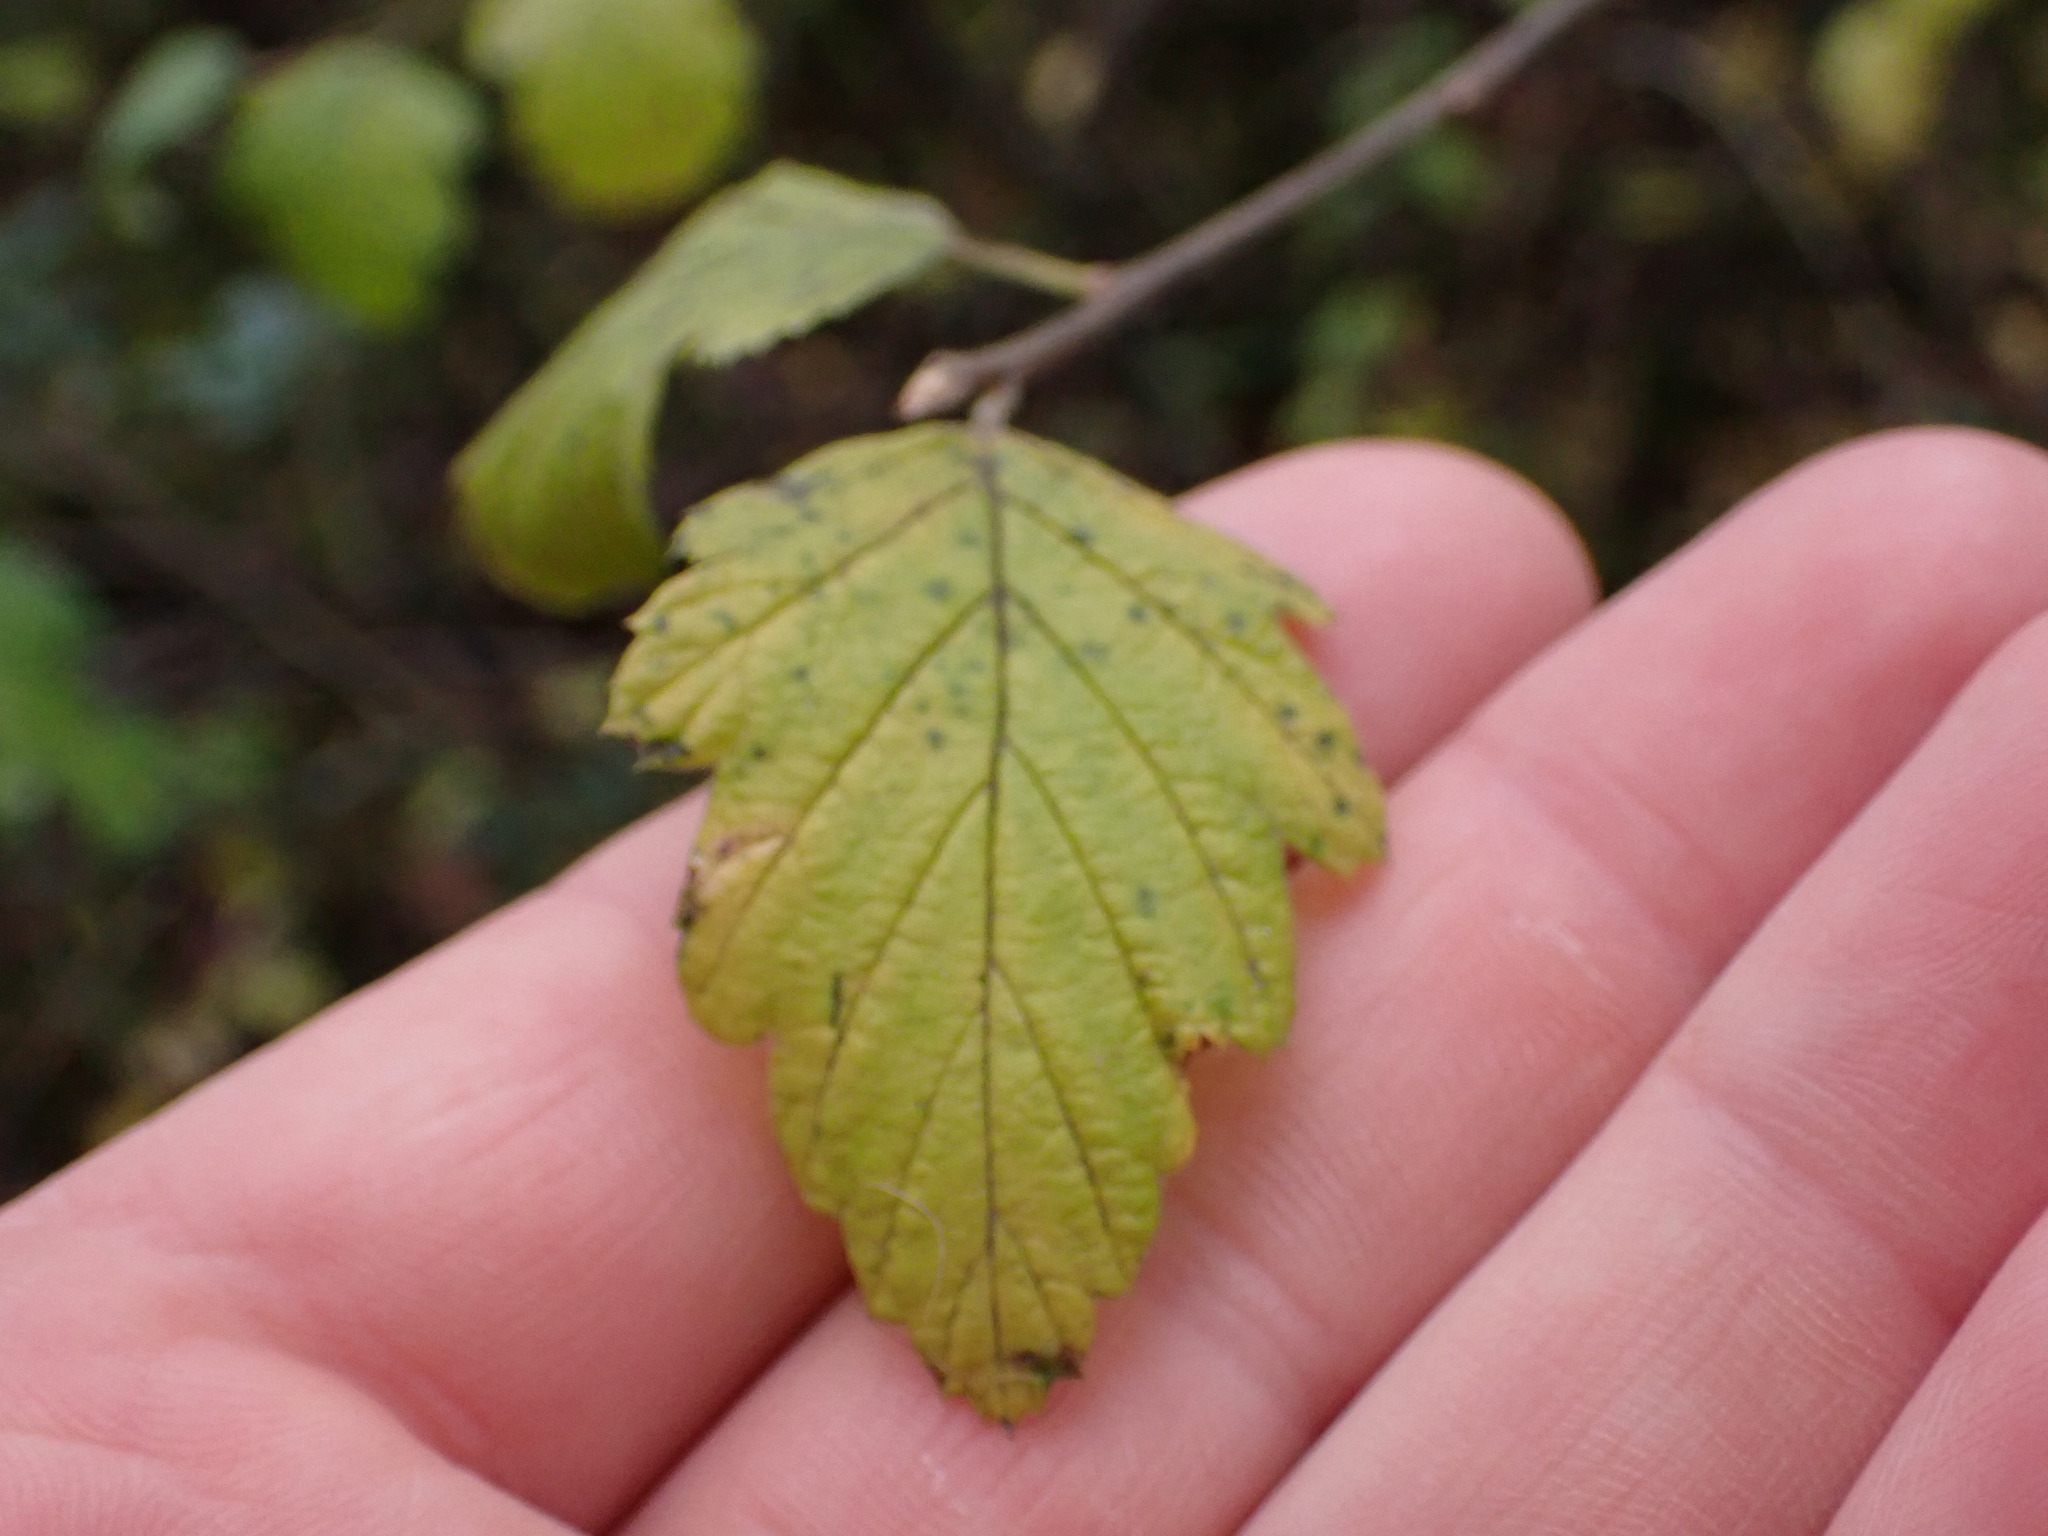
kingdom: Plantae
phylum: Tracheophyta
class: Magnoliopsida
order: Rosales
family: Rosaceae
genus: Holodiscus
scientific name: Holodiscus discolor
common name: Oceanspray
